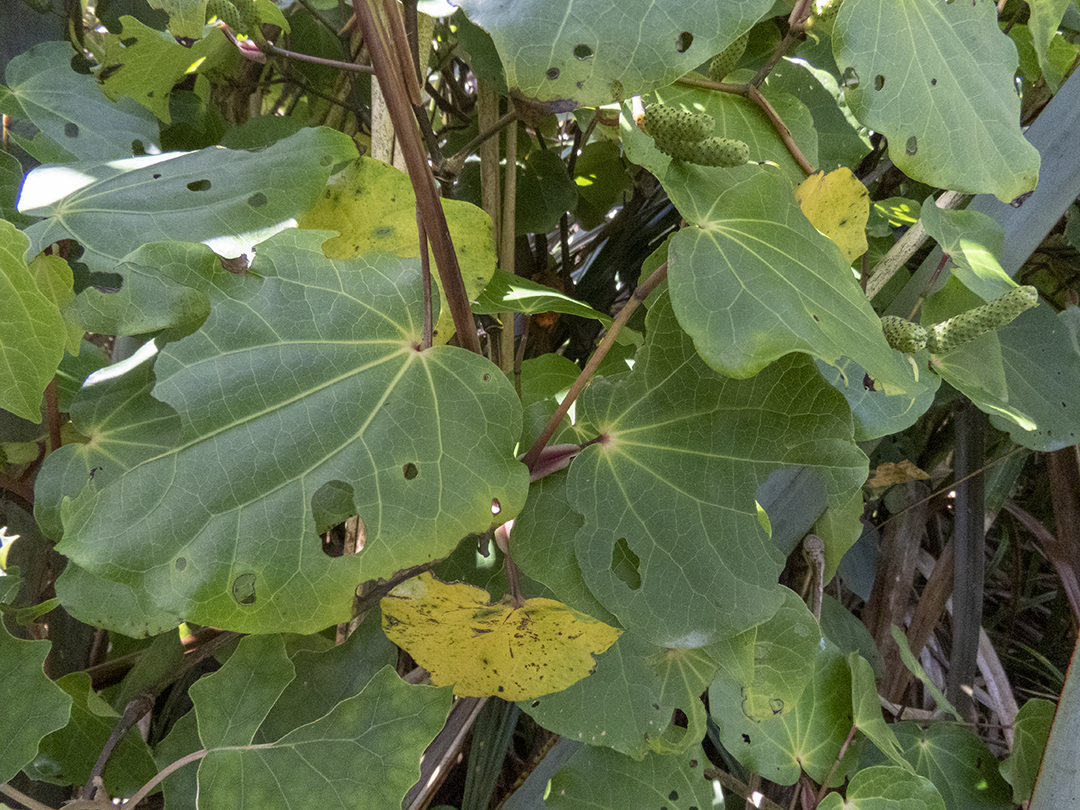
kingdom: Plantae
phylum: Tracheophyta
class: Magnoliopsida
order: Piperales
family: Piperaceae
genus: Macropiper
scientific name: Macropiper excelsum
